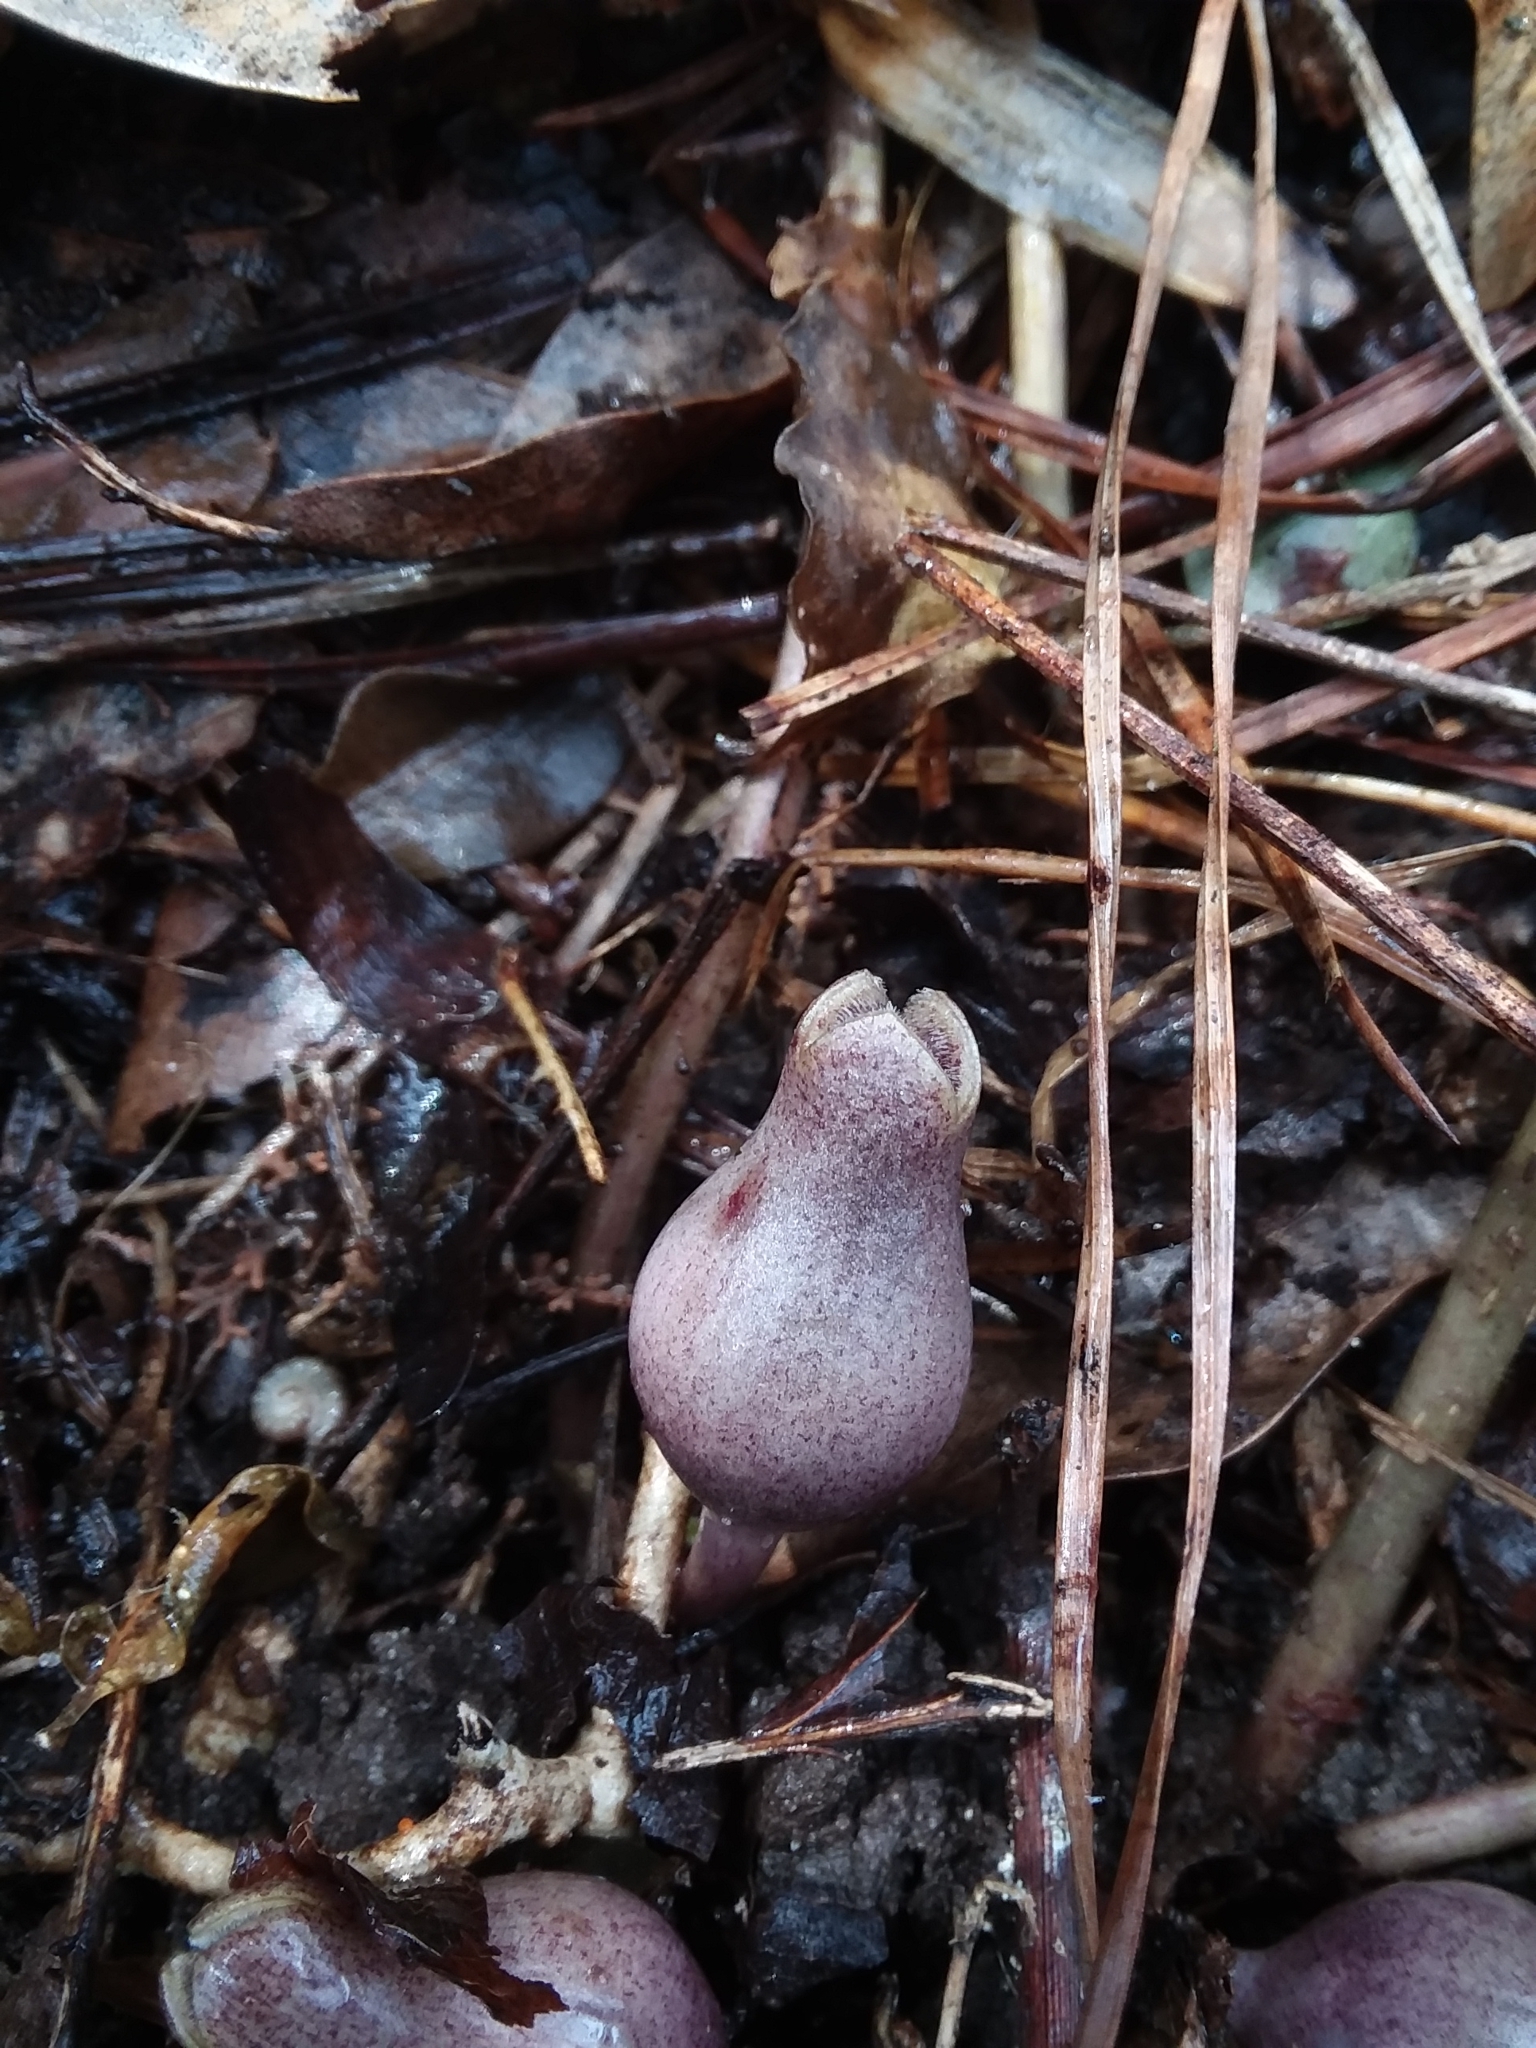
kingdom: Plantae
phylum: Tracheophyta
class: Magnoliopsida
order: Piperales
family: Aristolochiaceae
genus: Hexastylis
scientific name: Hexastylis arifolia
